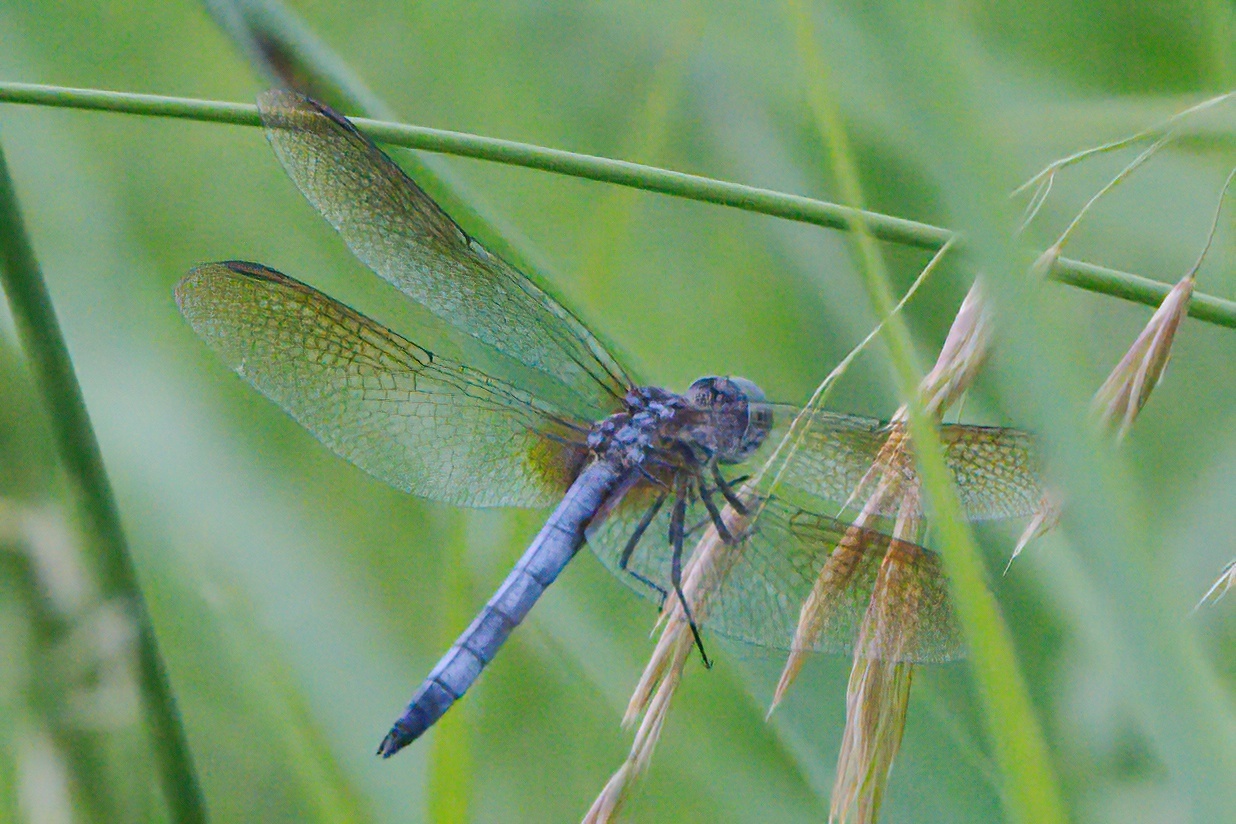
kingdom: Animalia
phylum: Arthropoda
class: Insecta
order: Odonata
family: Libellulidae
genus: Pachydiplax
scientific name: Pachydiplax longipennis
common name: Blue dasher
